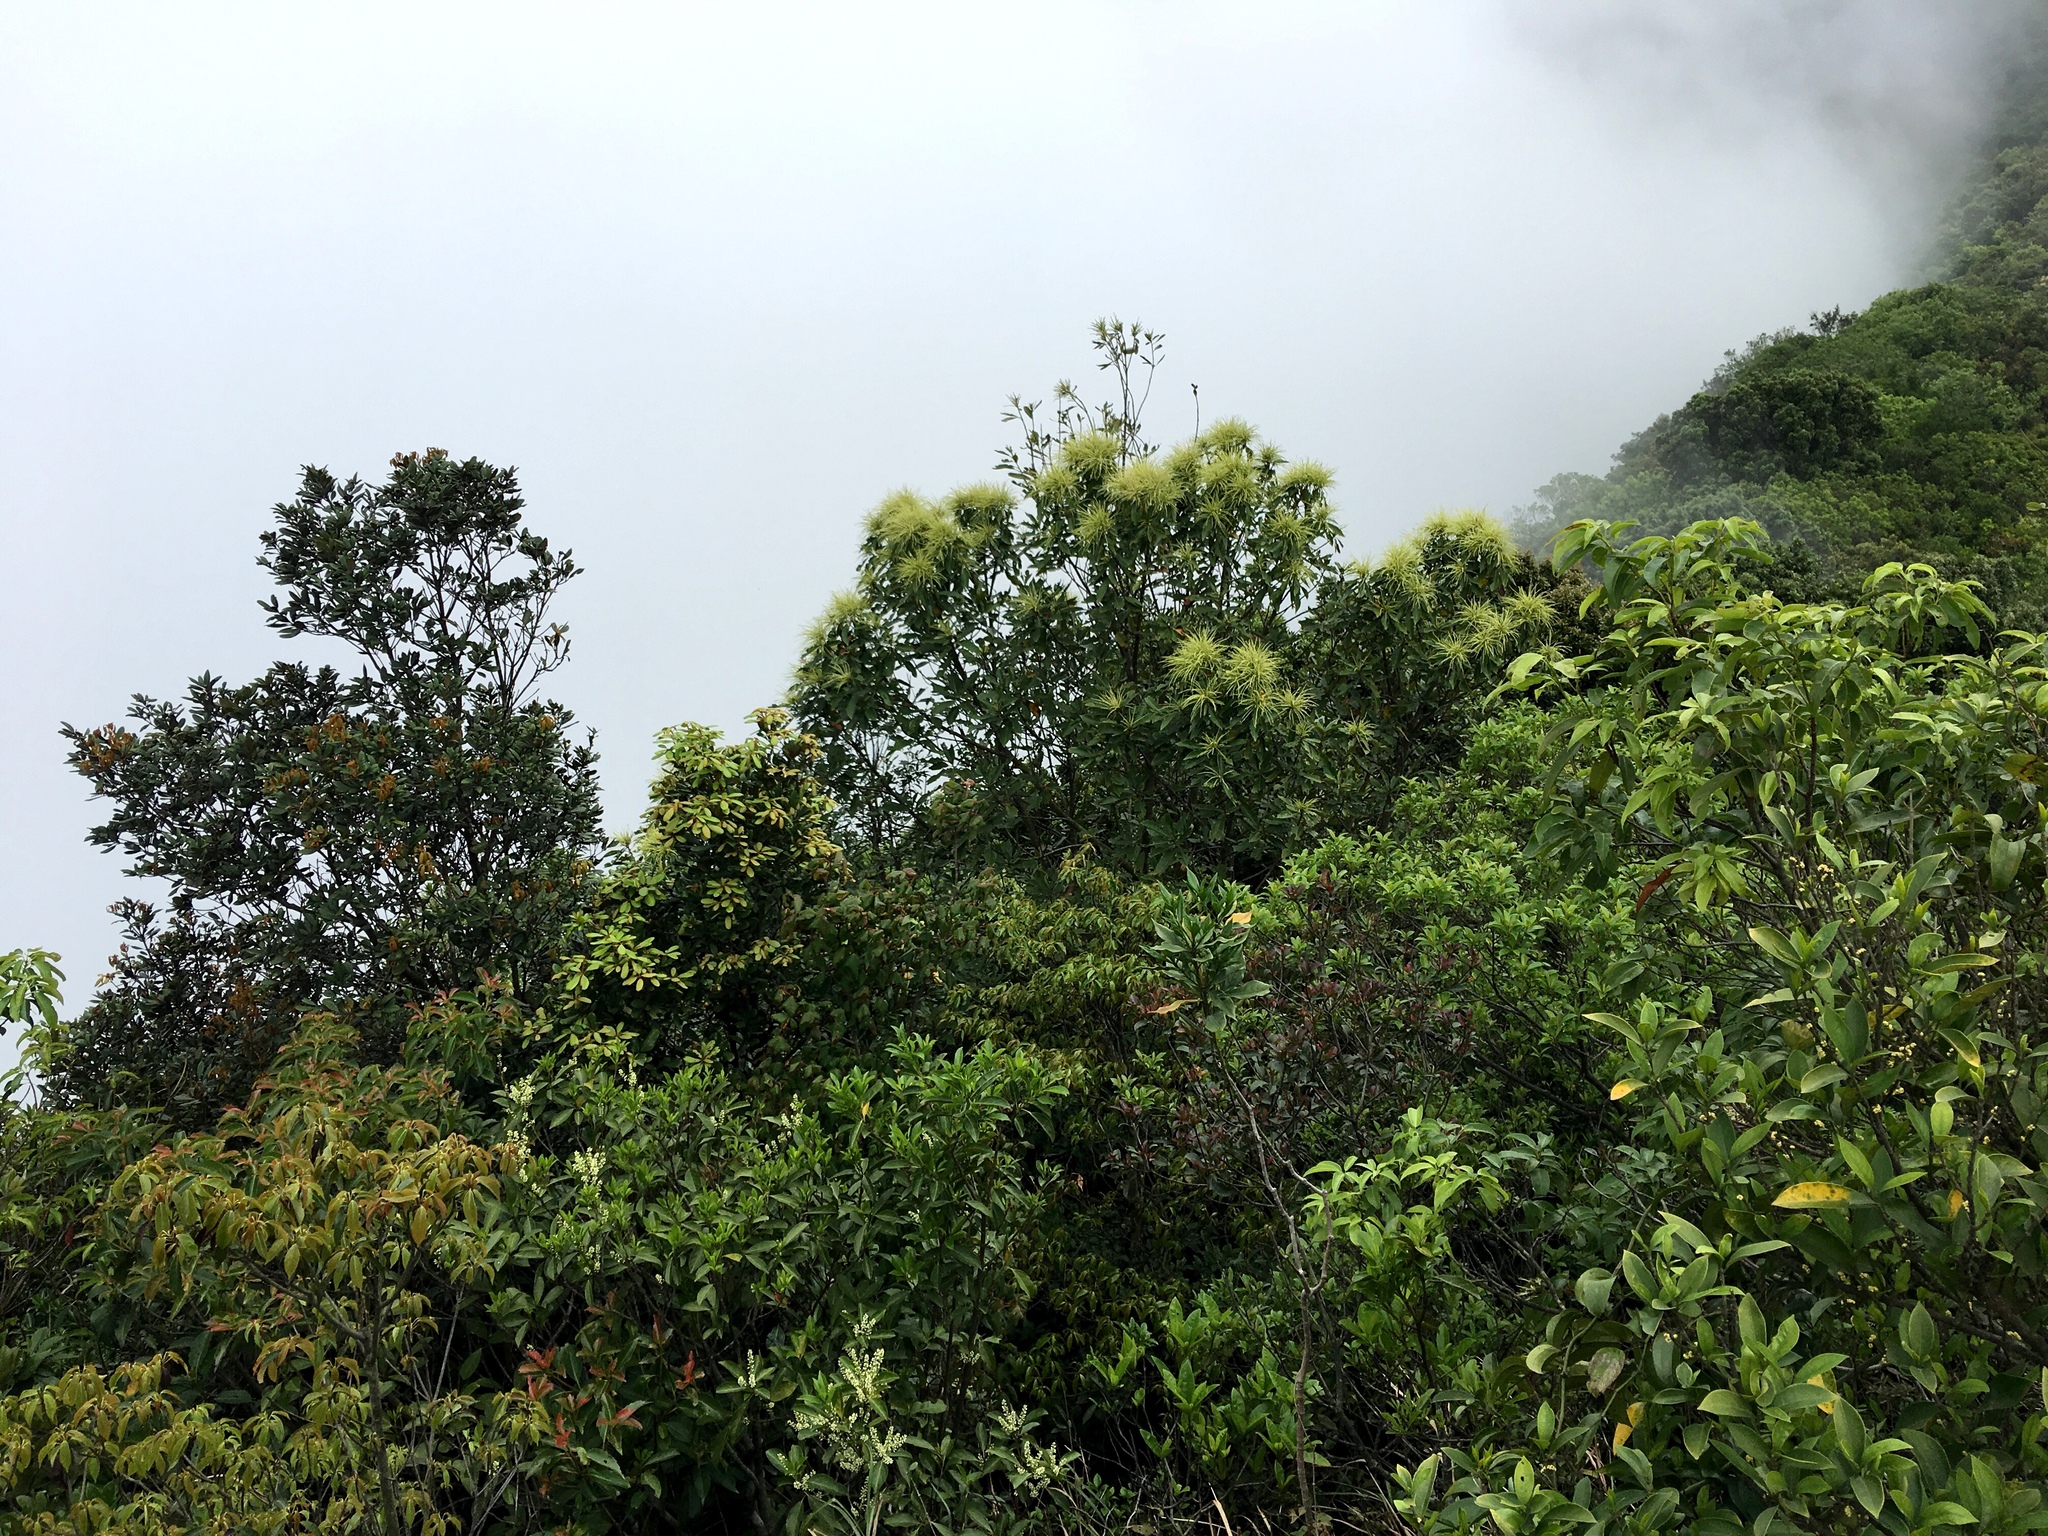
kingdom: Plantae
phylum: Tracheophyta
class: Magnoliopsida
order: Fagales
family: Fagaceae
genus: Castanopsis
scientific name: Castanopsis fissa
